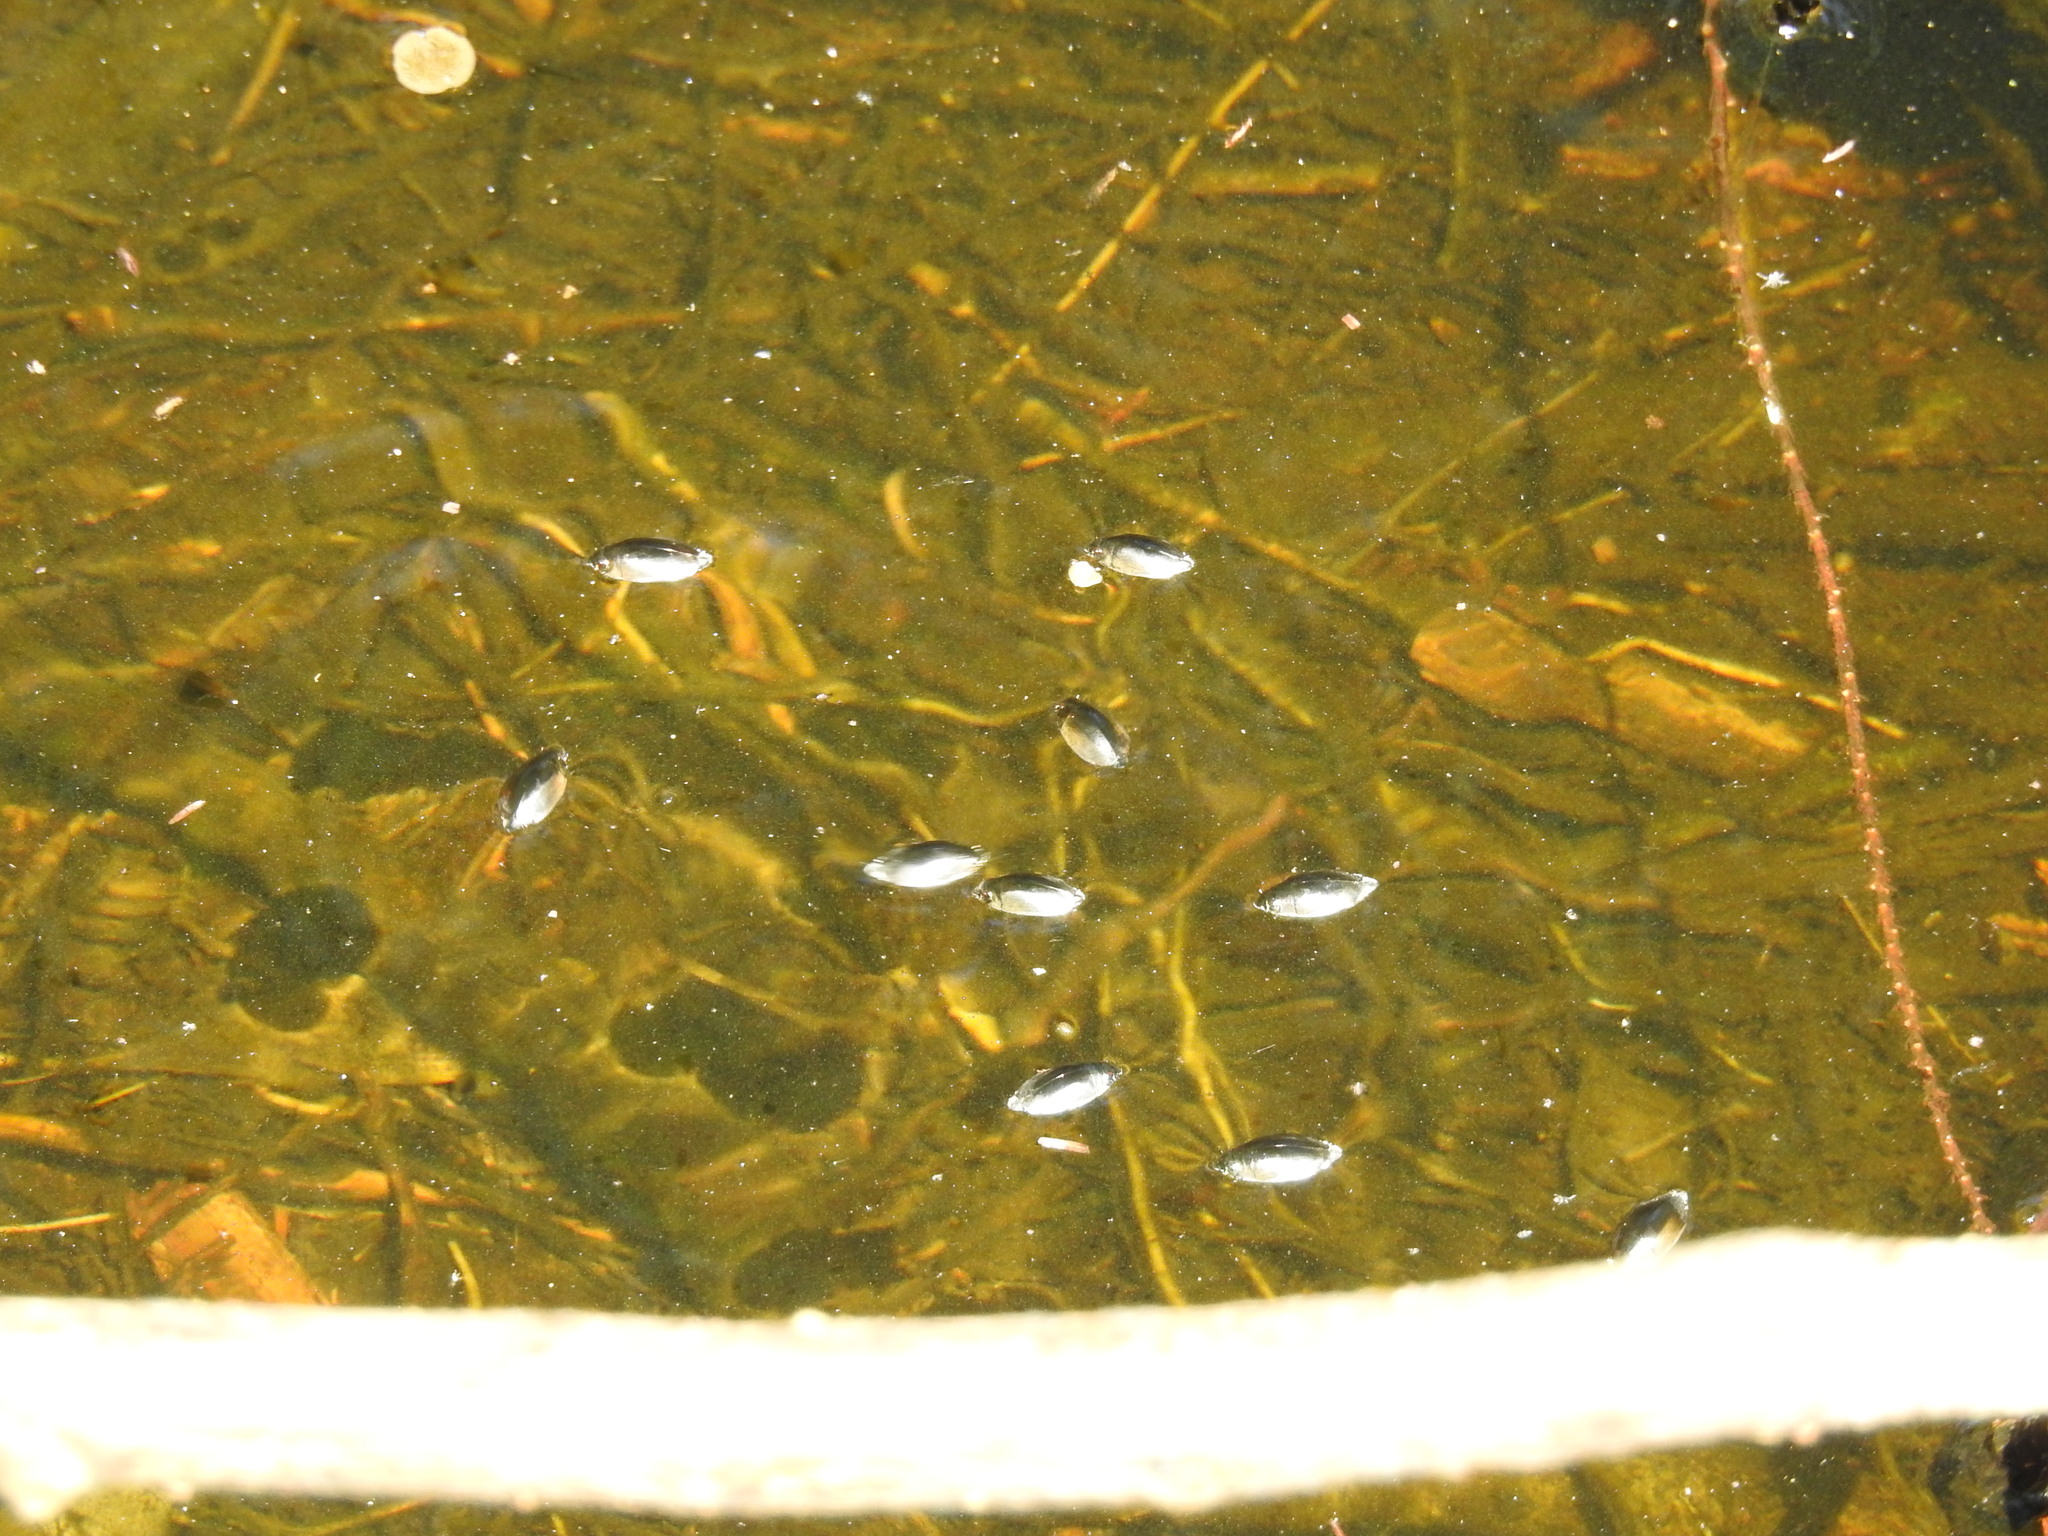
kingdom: Animalia
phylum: Arthropoda
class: Insecta
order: Coleoptera
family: Gyrinidae
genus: Dineutus
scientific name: Dineutus
